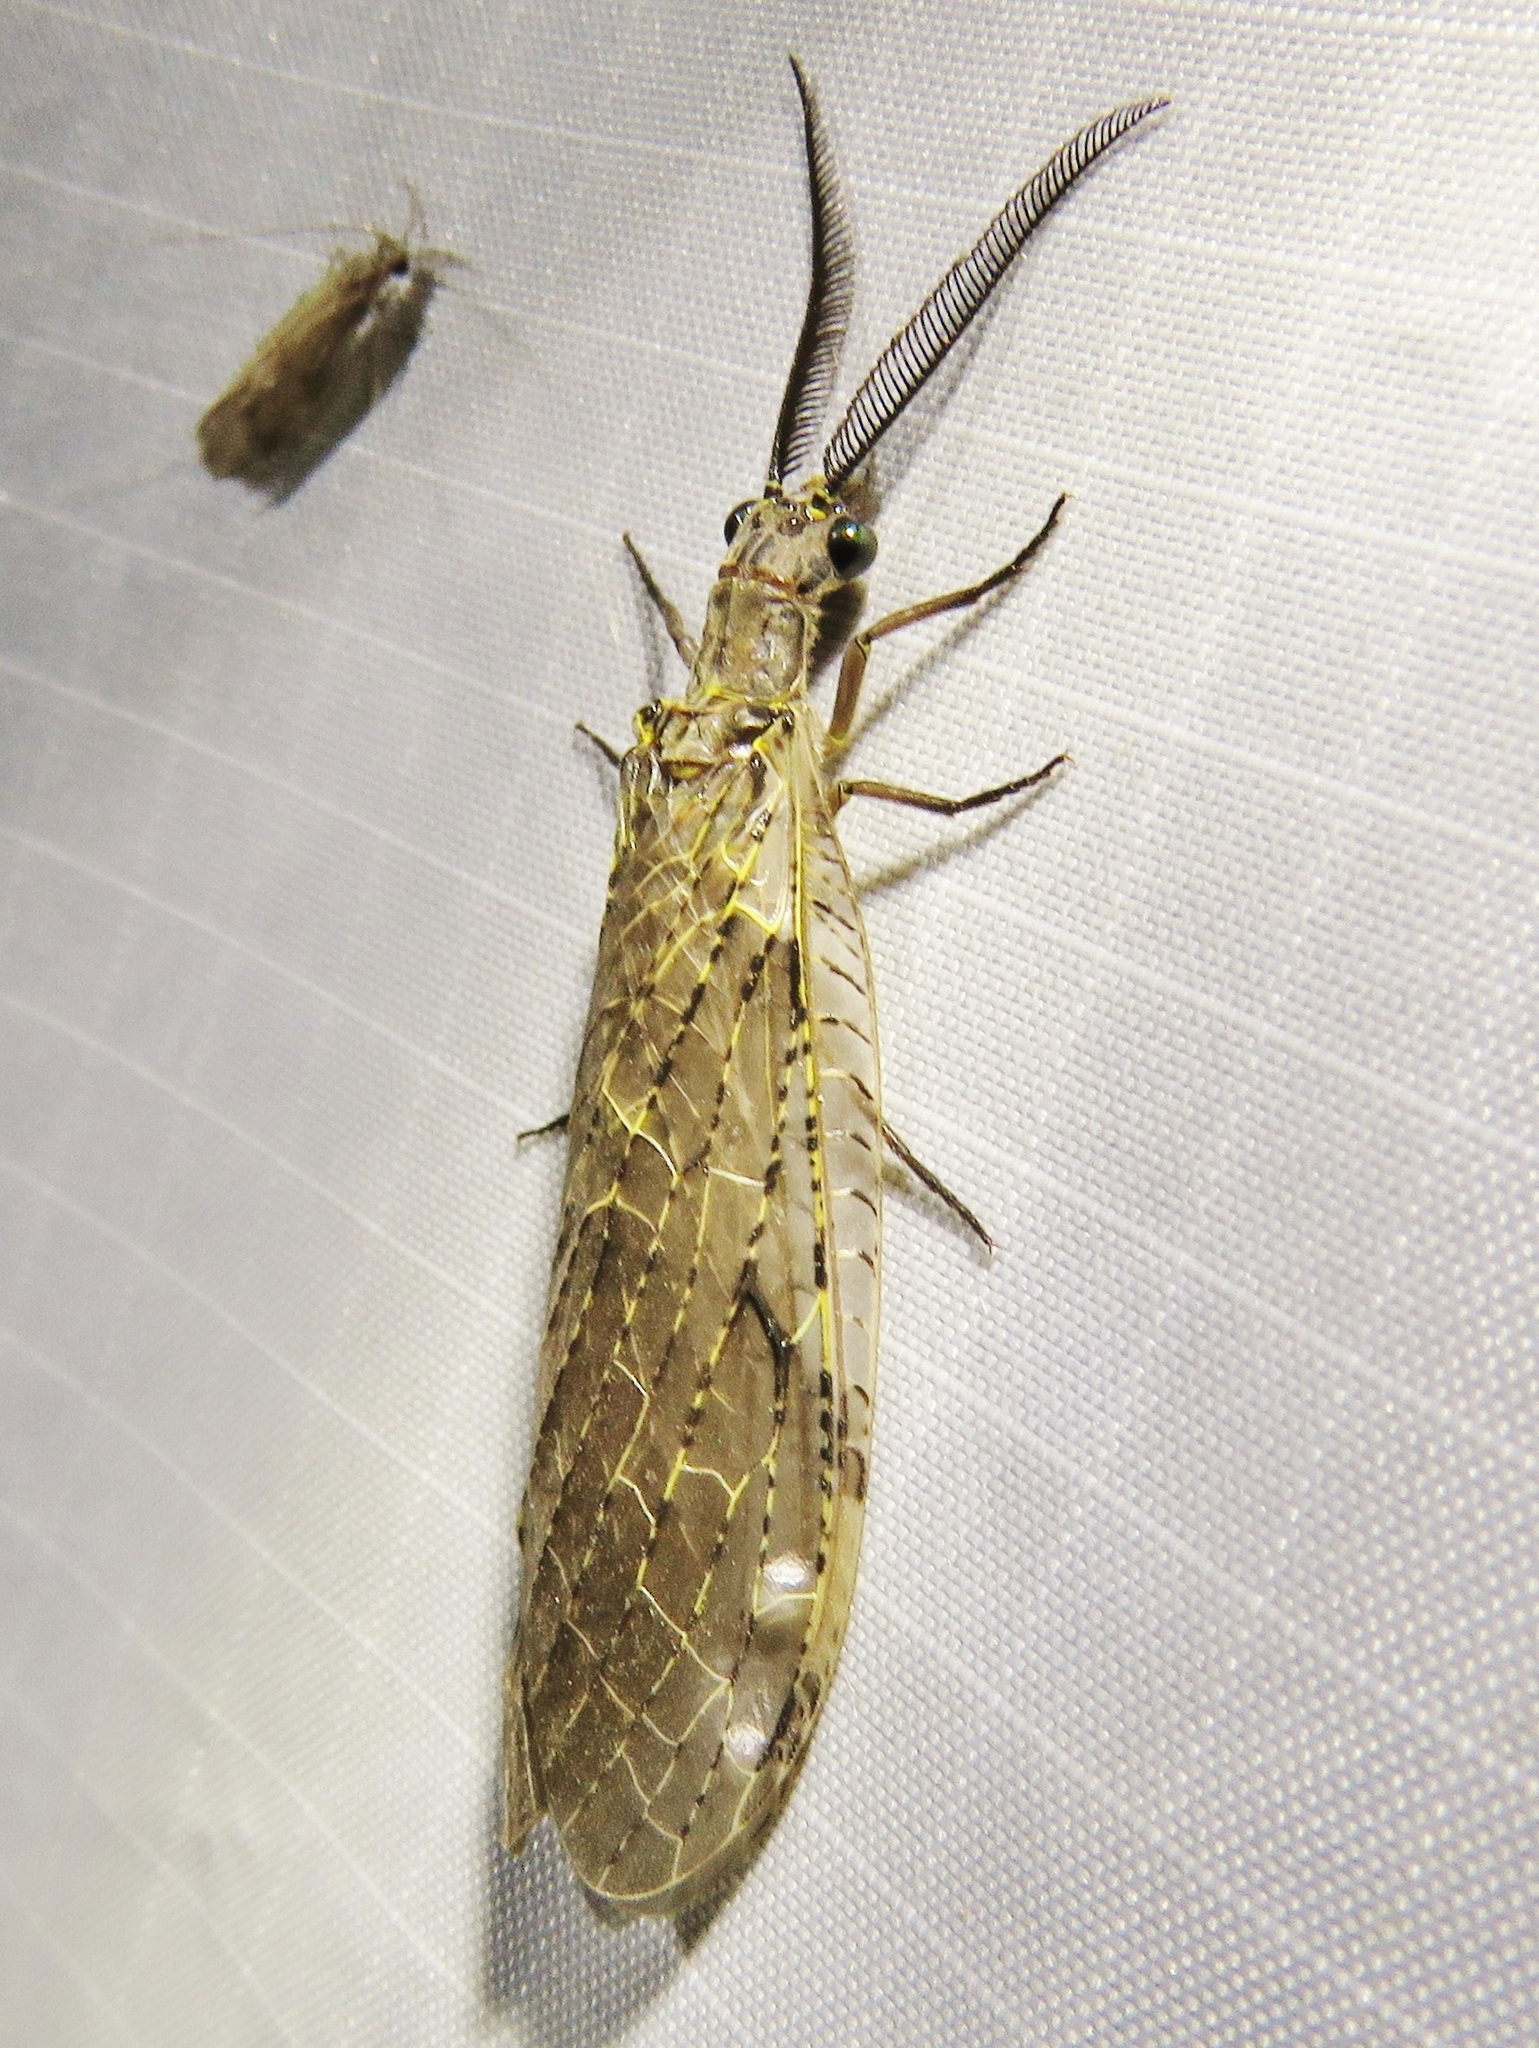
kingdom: Animalia
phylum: Arthropoda
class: Insecta
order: Megaloptera
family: Corydalidae
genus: Chauliodes
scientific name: Chauliodes rastricornis
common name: Spring fishfly
